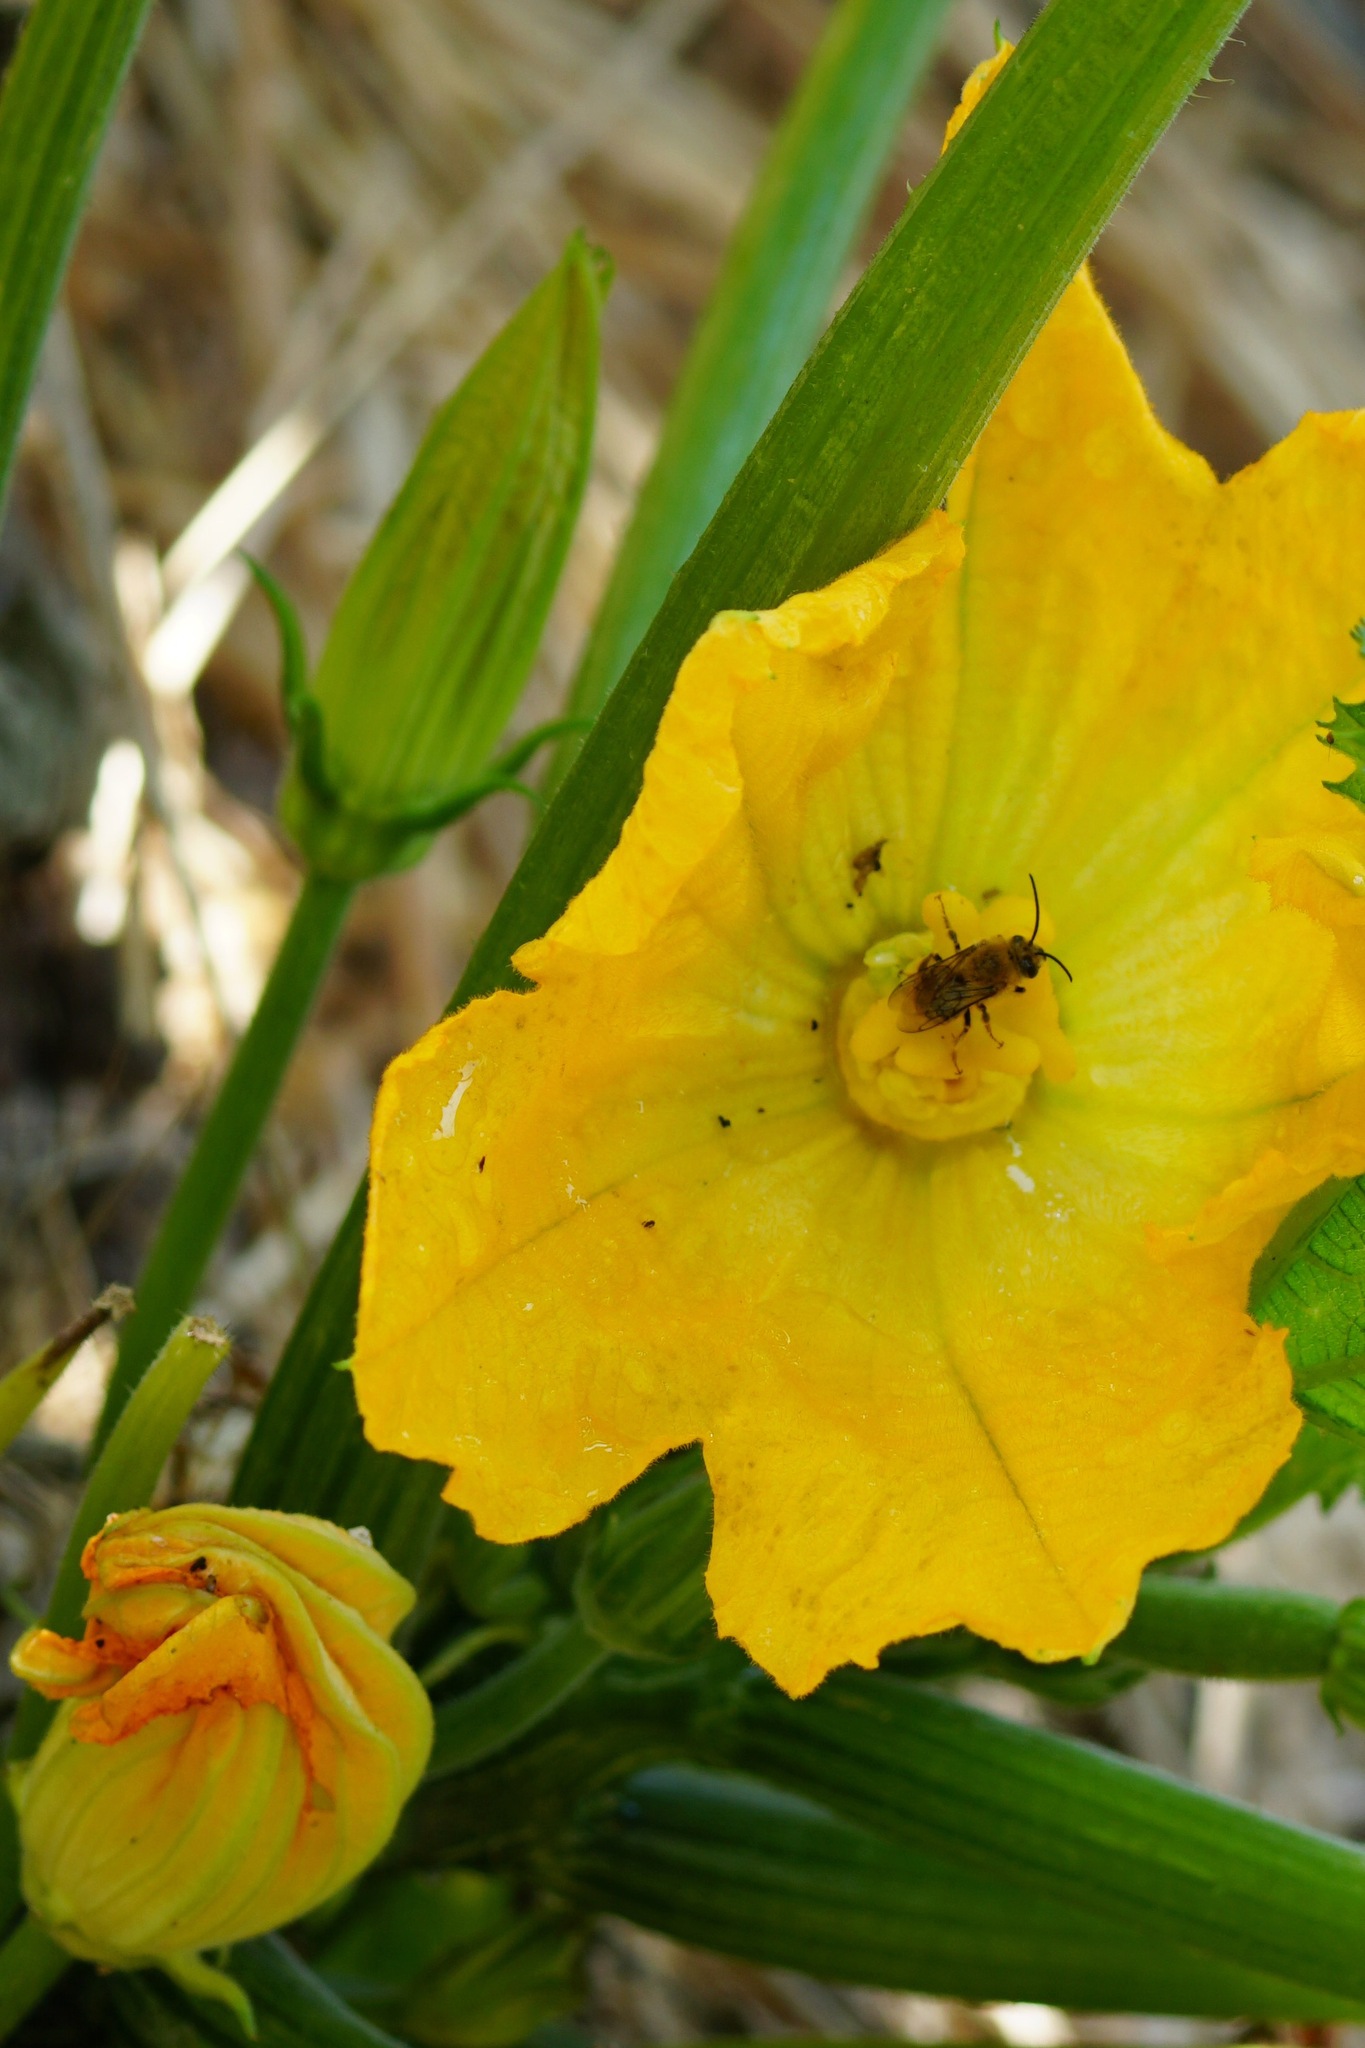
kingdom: Animalia
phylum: Arthropoda
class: Insecta
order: Hymenoptera
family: Apidae
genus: Peponapis
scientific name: Peponapis pruinosa
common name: Pruinose squash bee
